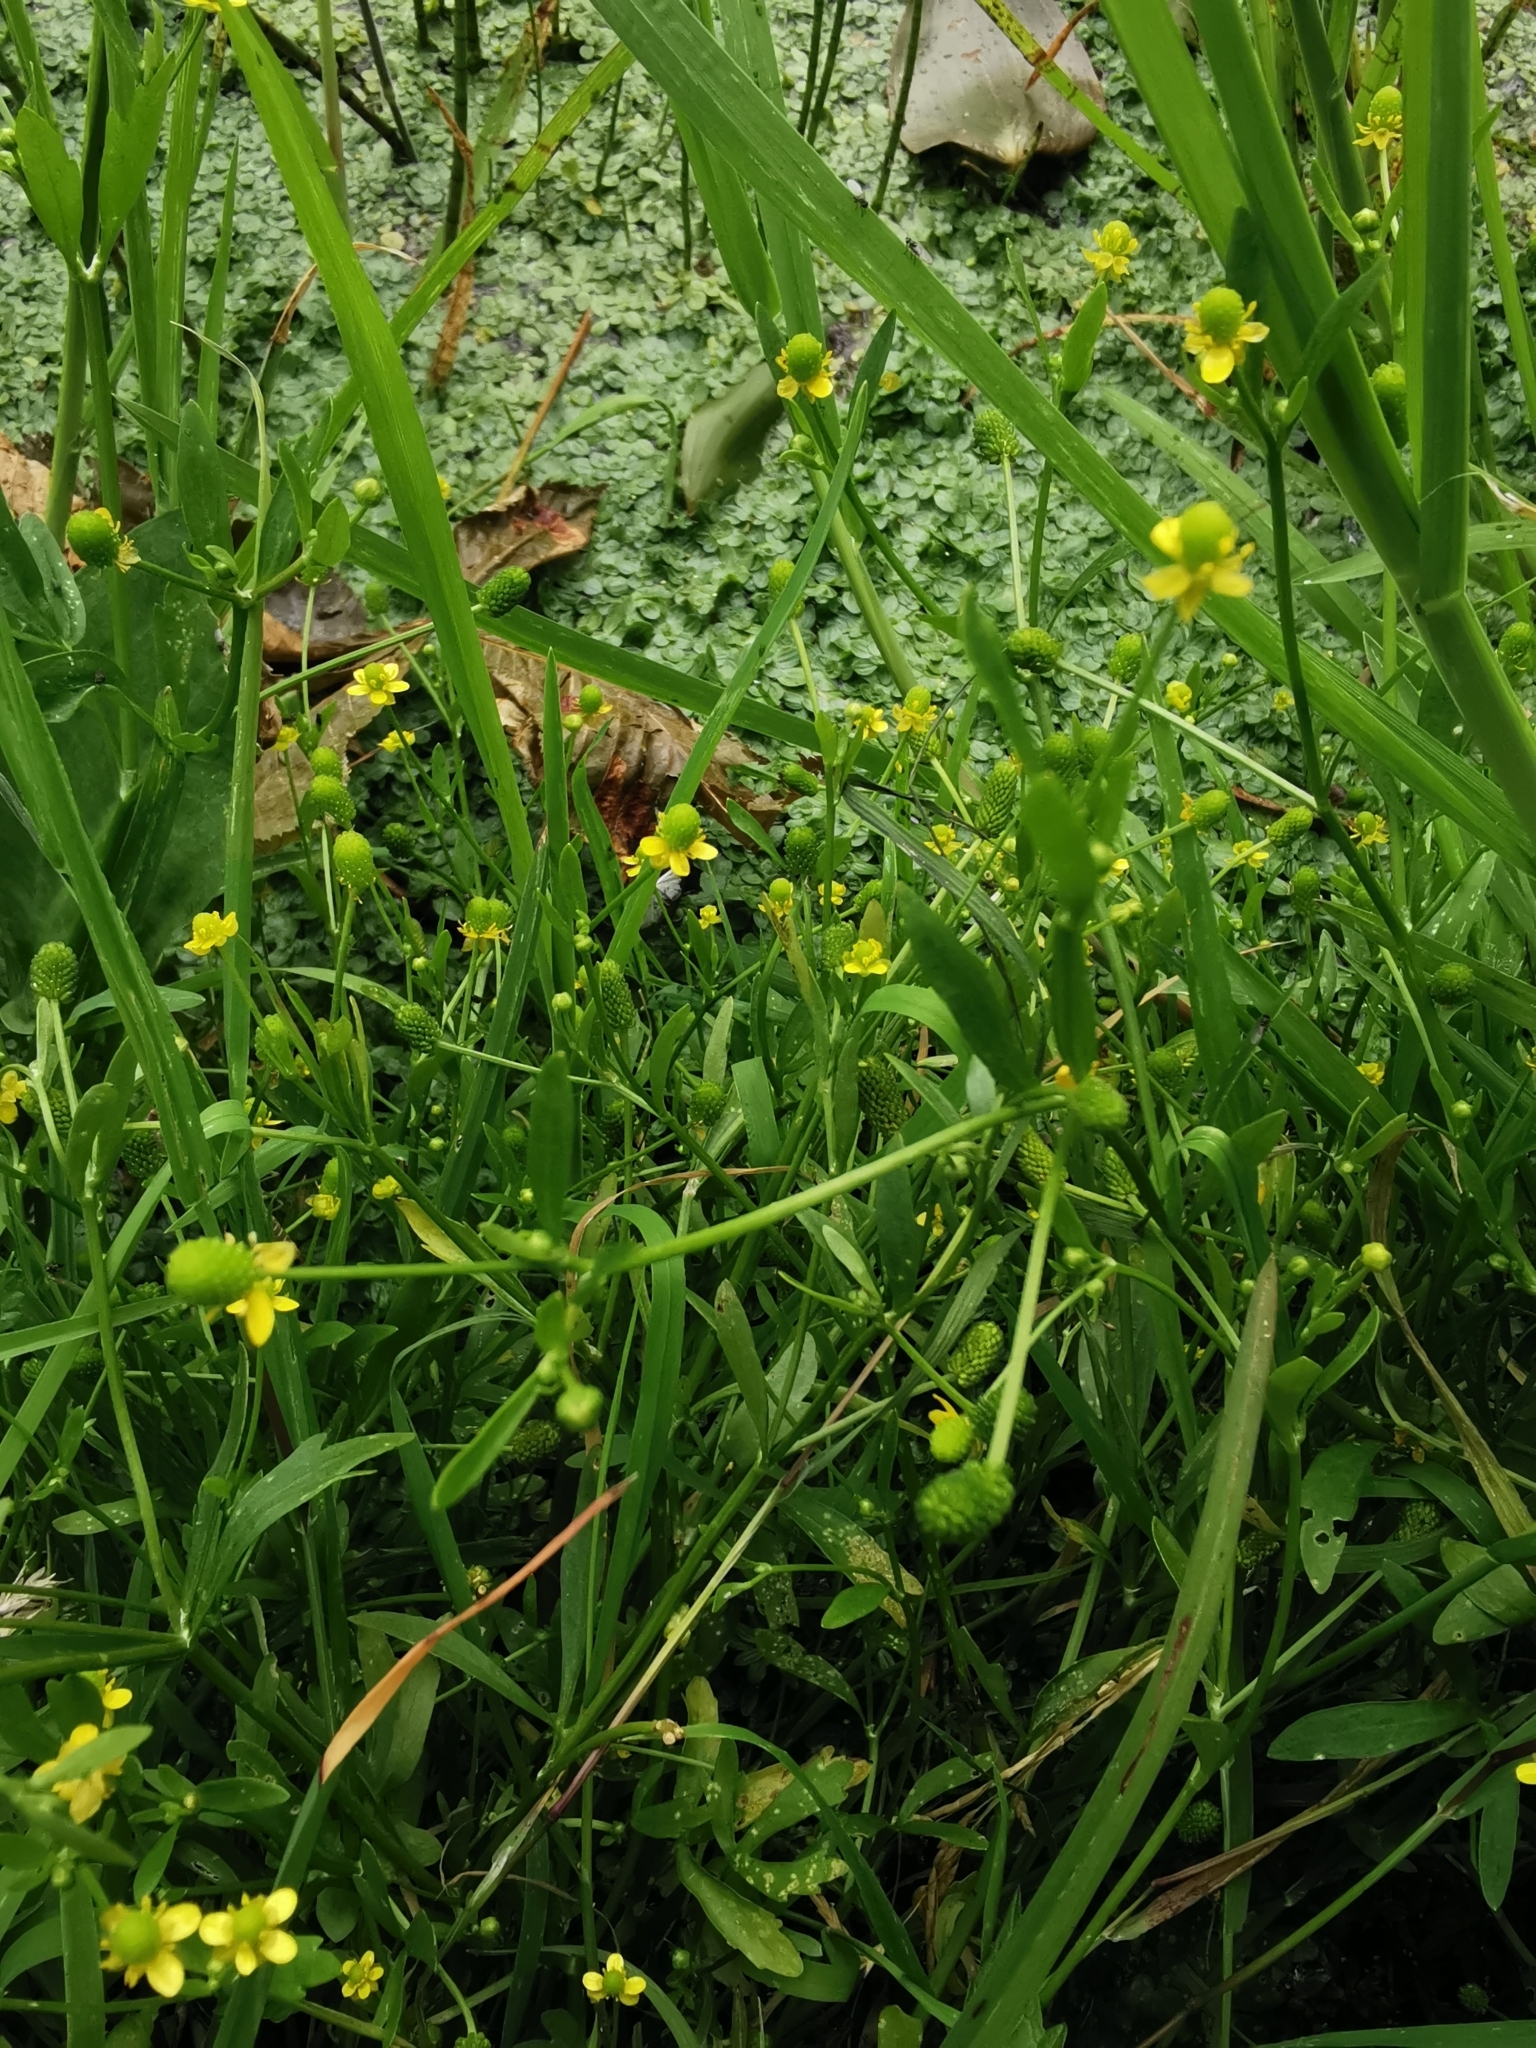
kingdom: Plantae
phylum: Tracheophyta
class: Magnoliopsida
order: Ranunculales
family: Ranunculaceae
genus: Ranunculus
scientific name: Ranunculus sceleratus
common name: Celery-leaved buttercup
